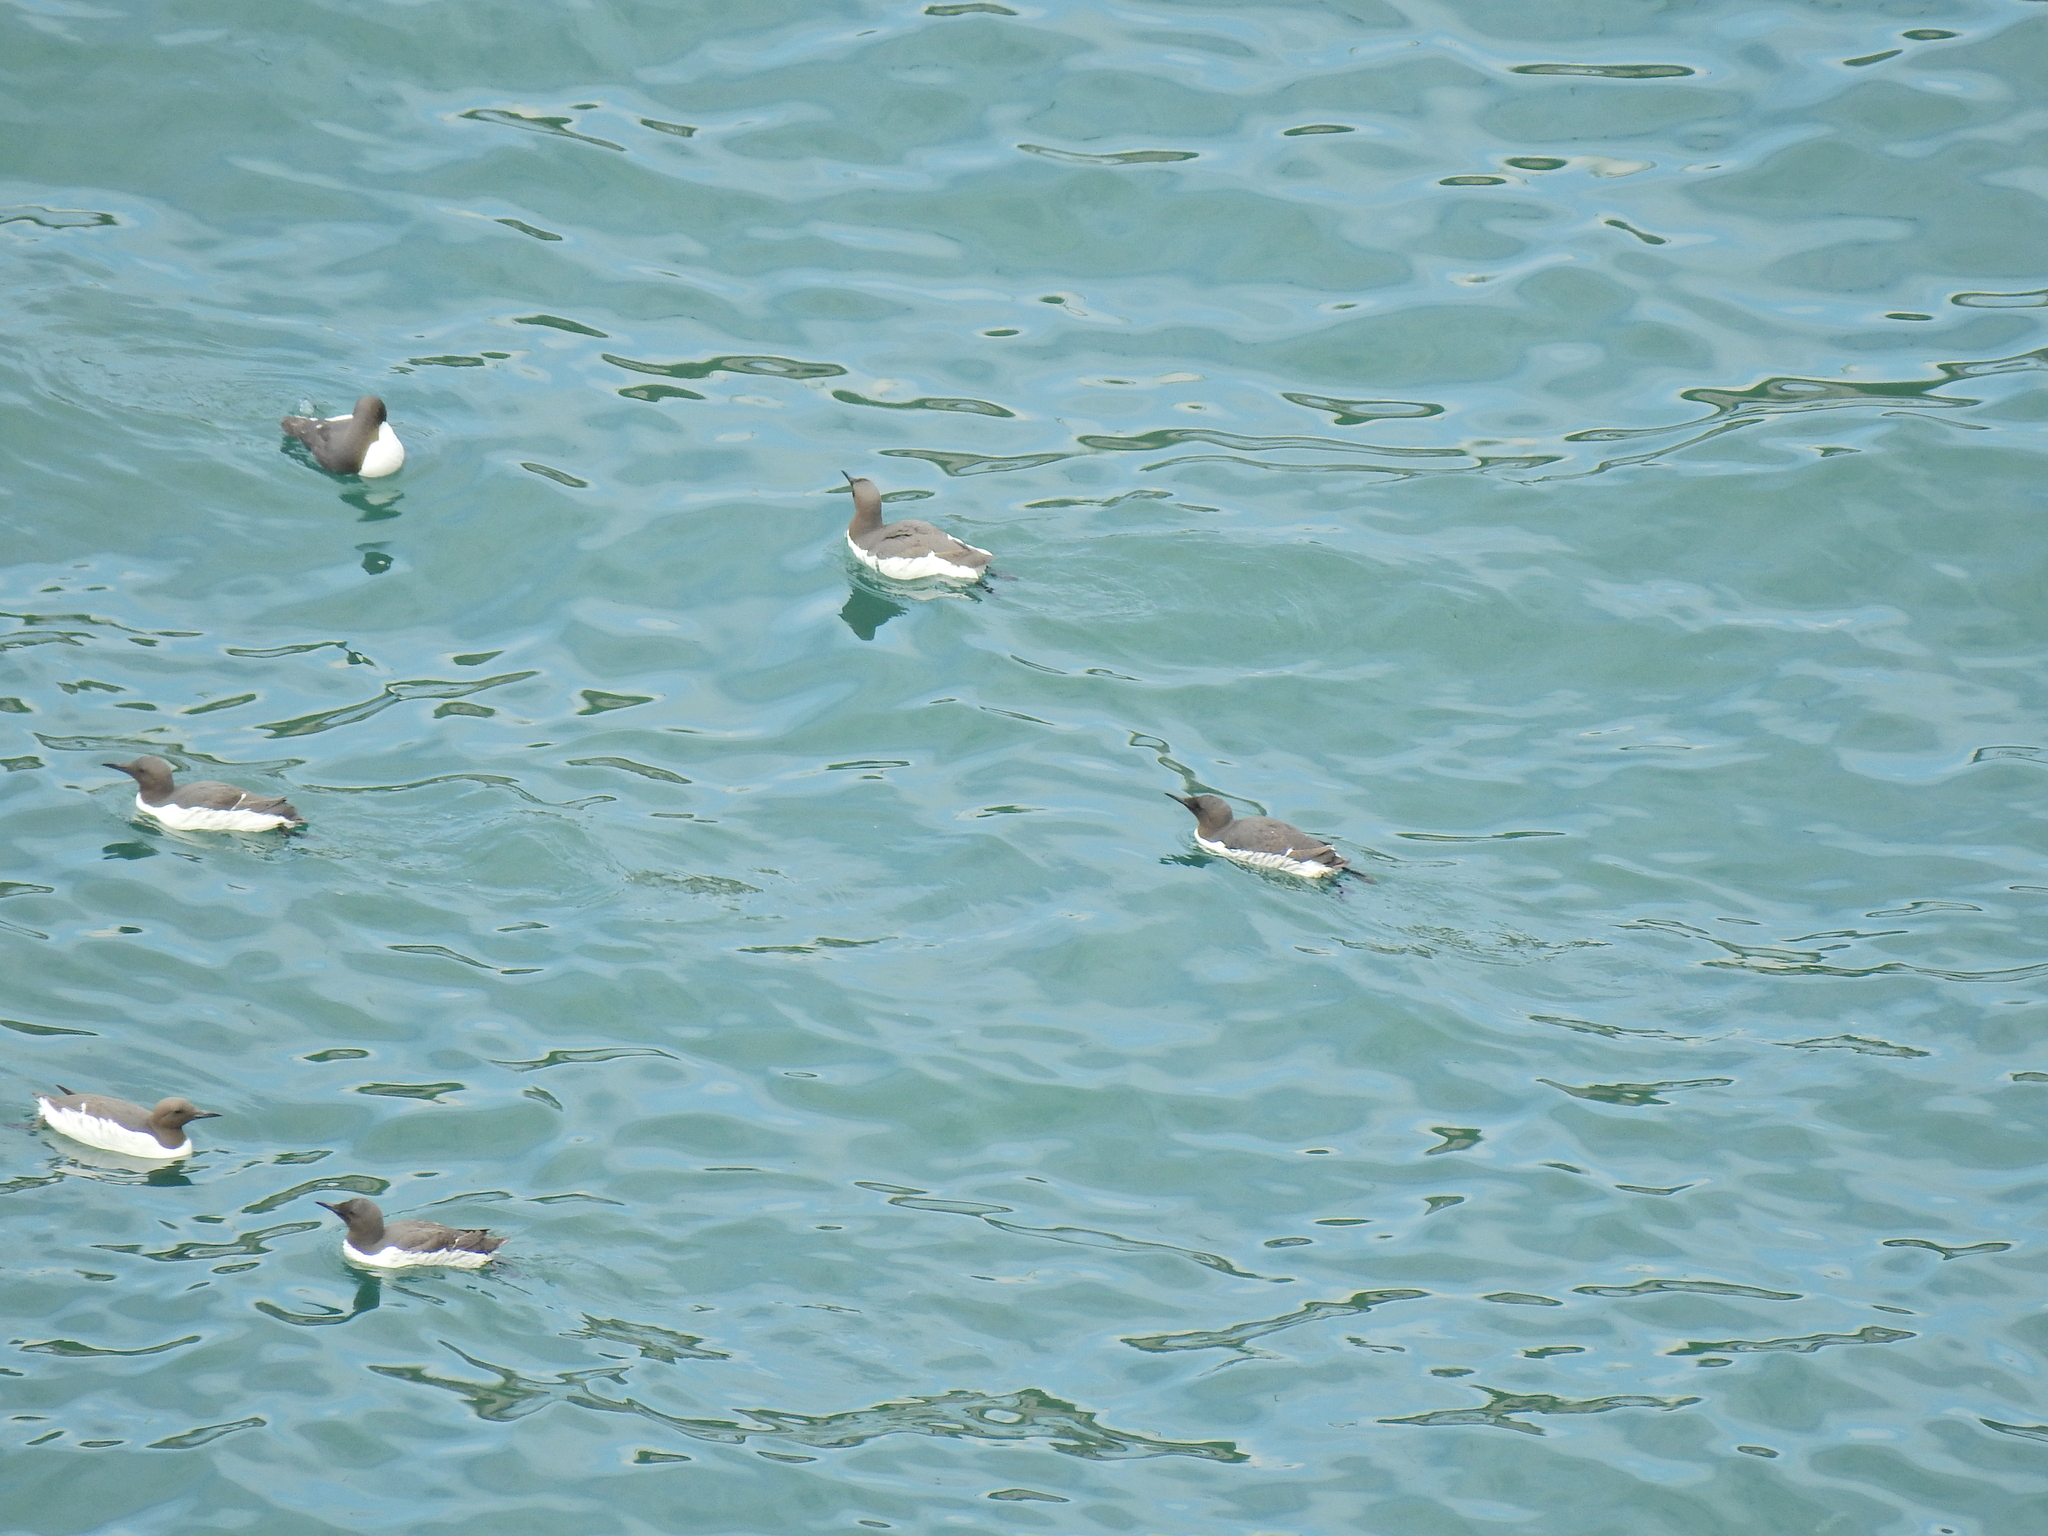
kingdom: Animalia
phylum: Chordata
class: Aves
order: Charadriiformes
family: Alcidae
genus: Uria
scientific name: Uria aalge
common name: Common murre
